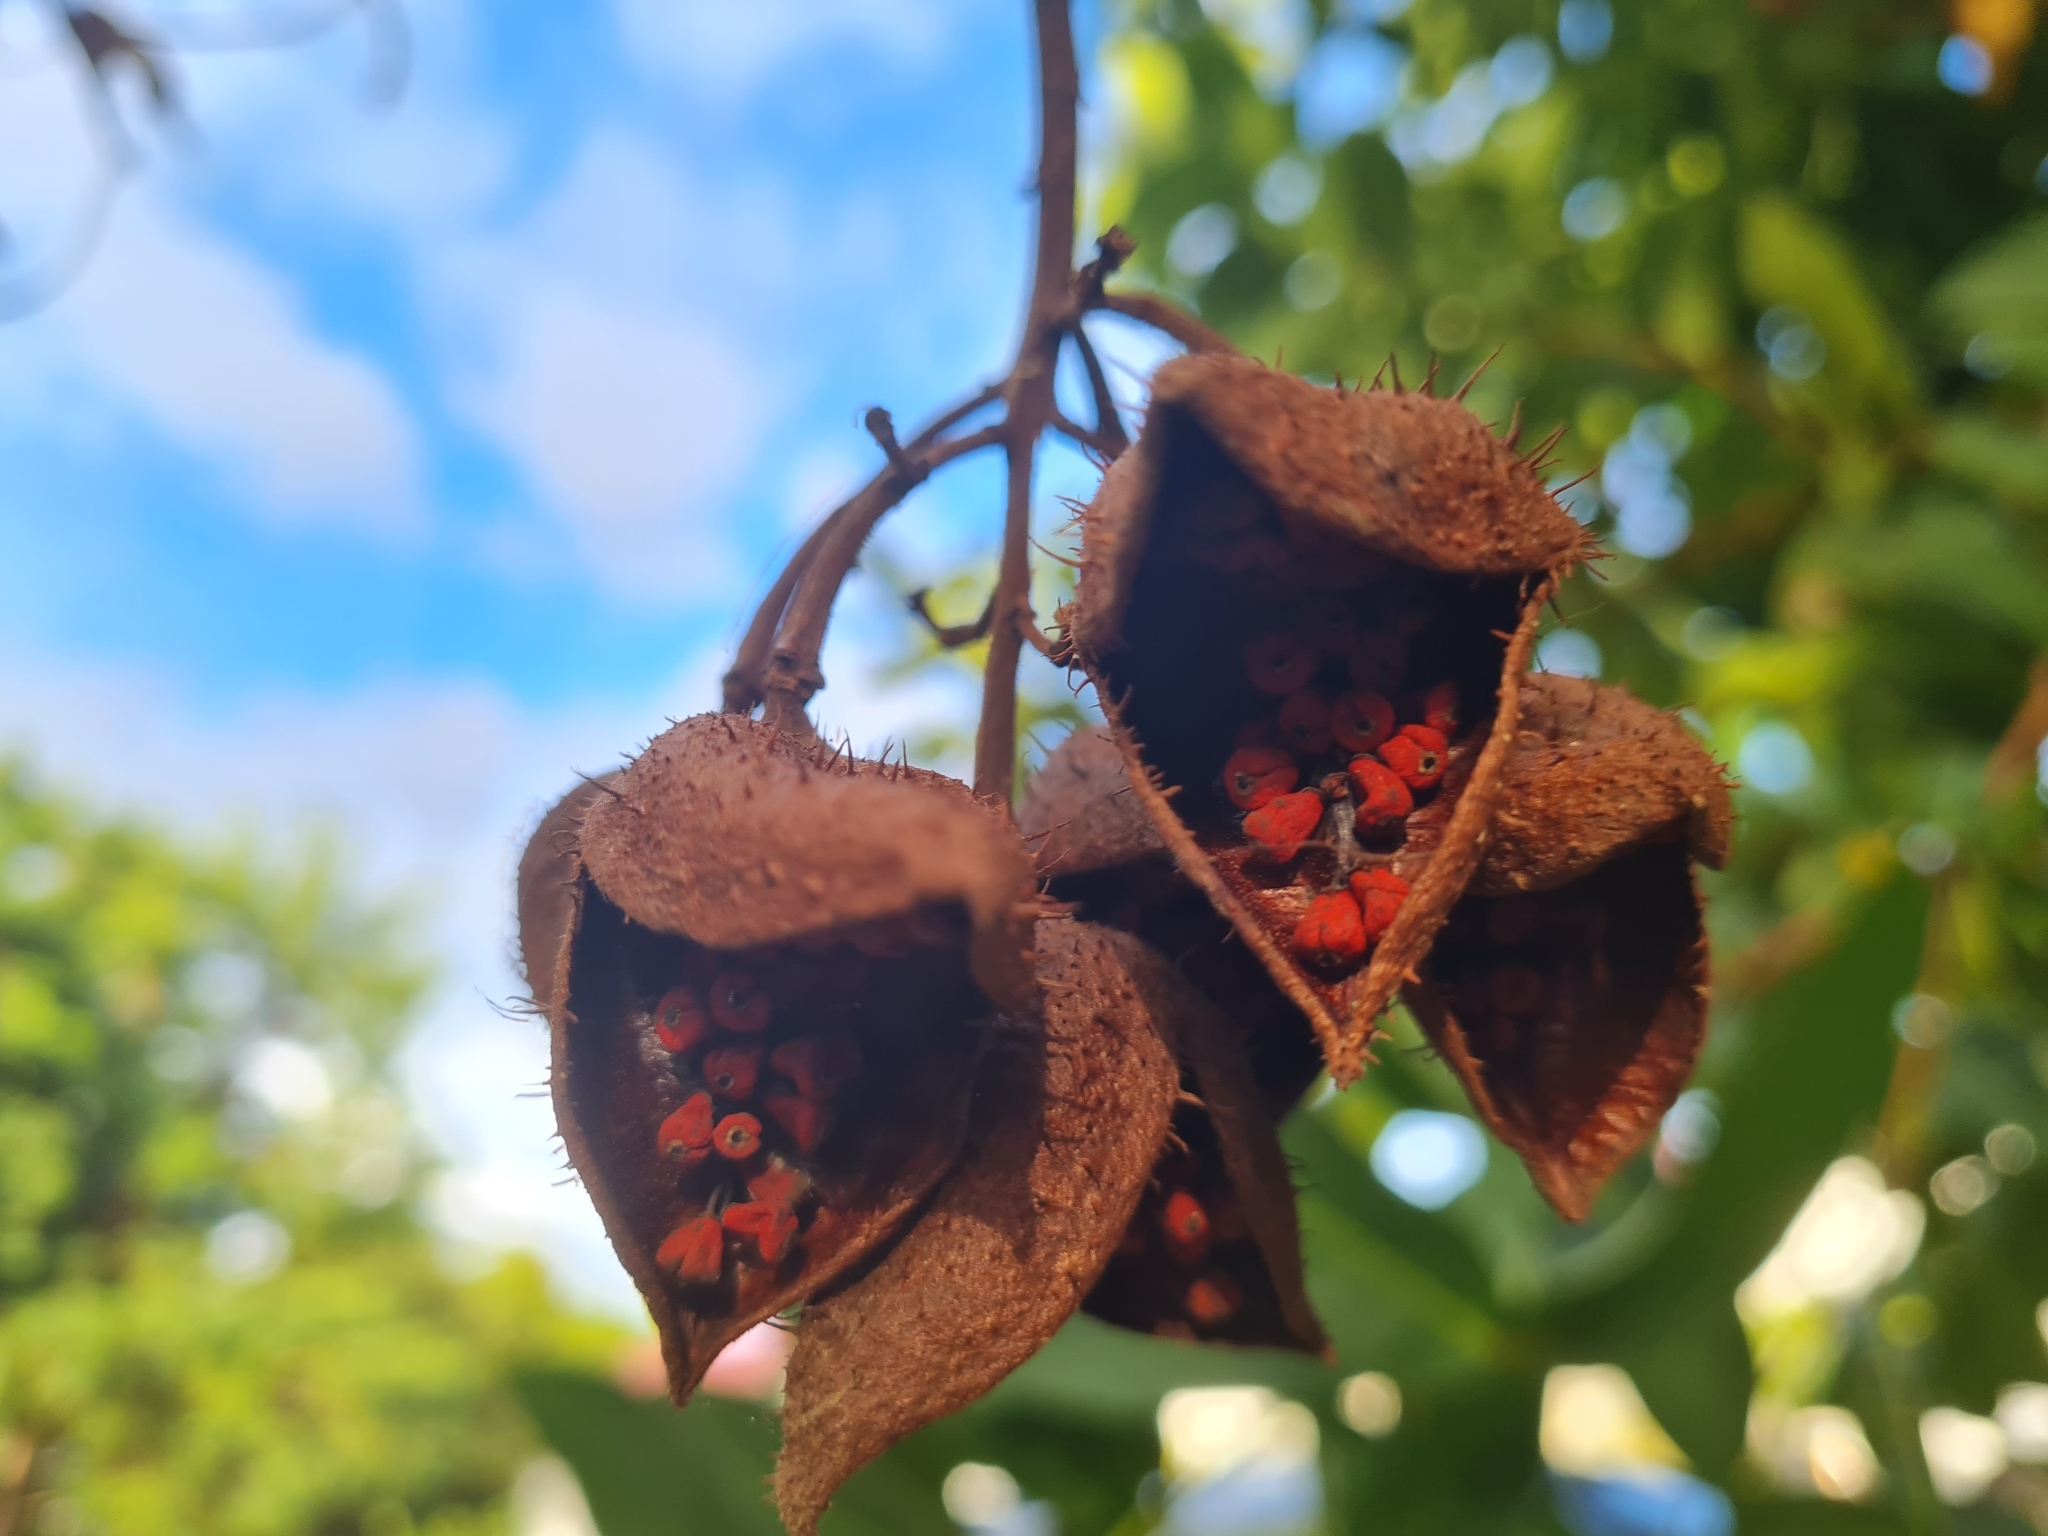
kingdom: Plantae
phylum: Tracheophyta
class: Magnoliopsida
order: Malvales
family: Bixaceae
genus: Bixa
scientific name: Bixa orellana
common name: Lipsticktree
